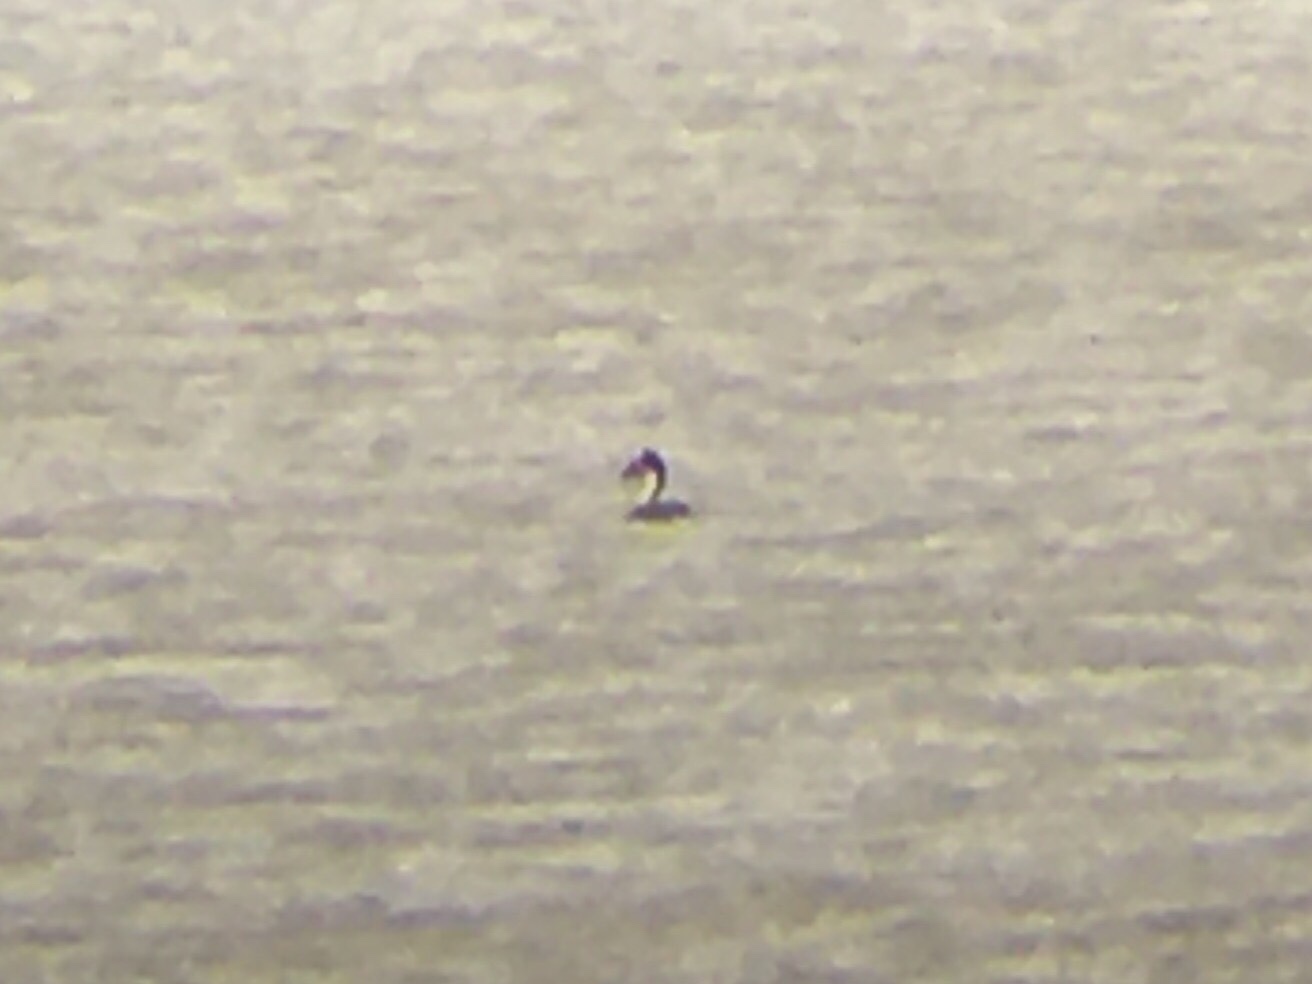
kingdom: Animalia
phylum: Chordata
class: Aves
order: Podicipediformes
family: Podicipedidae
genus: Podiceps
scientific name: Podiceps occipitalis
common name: Silvery grebe
